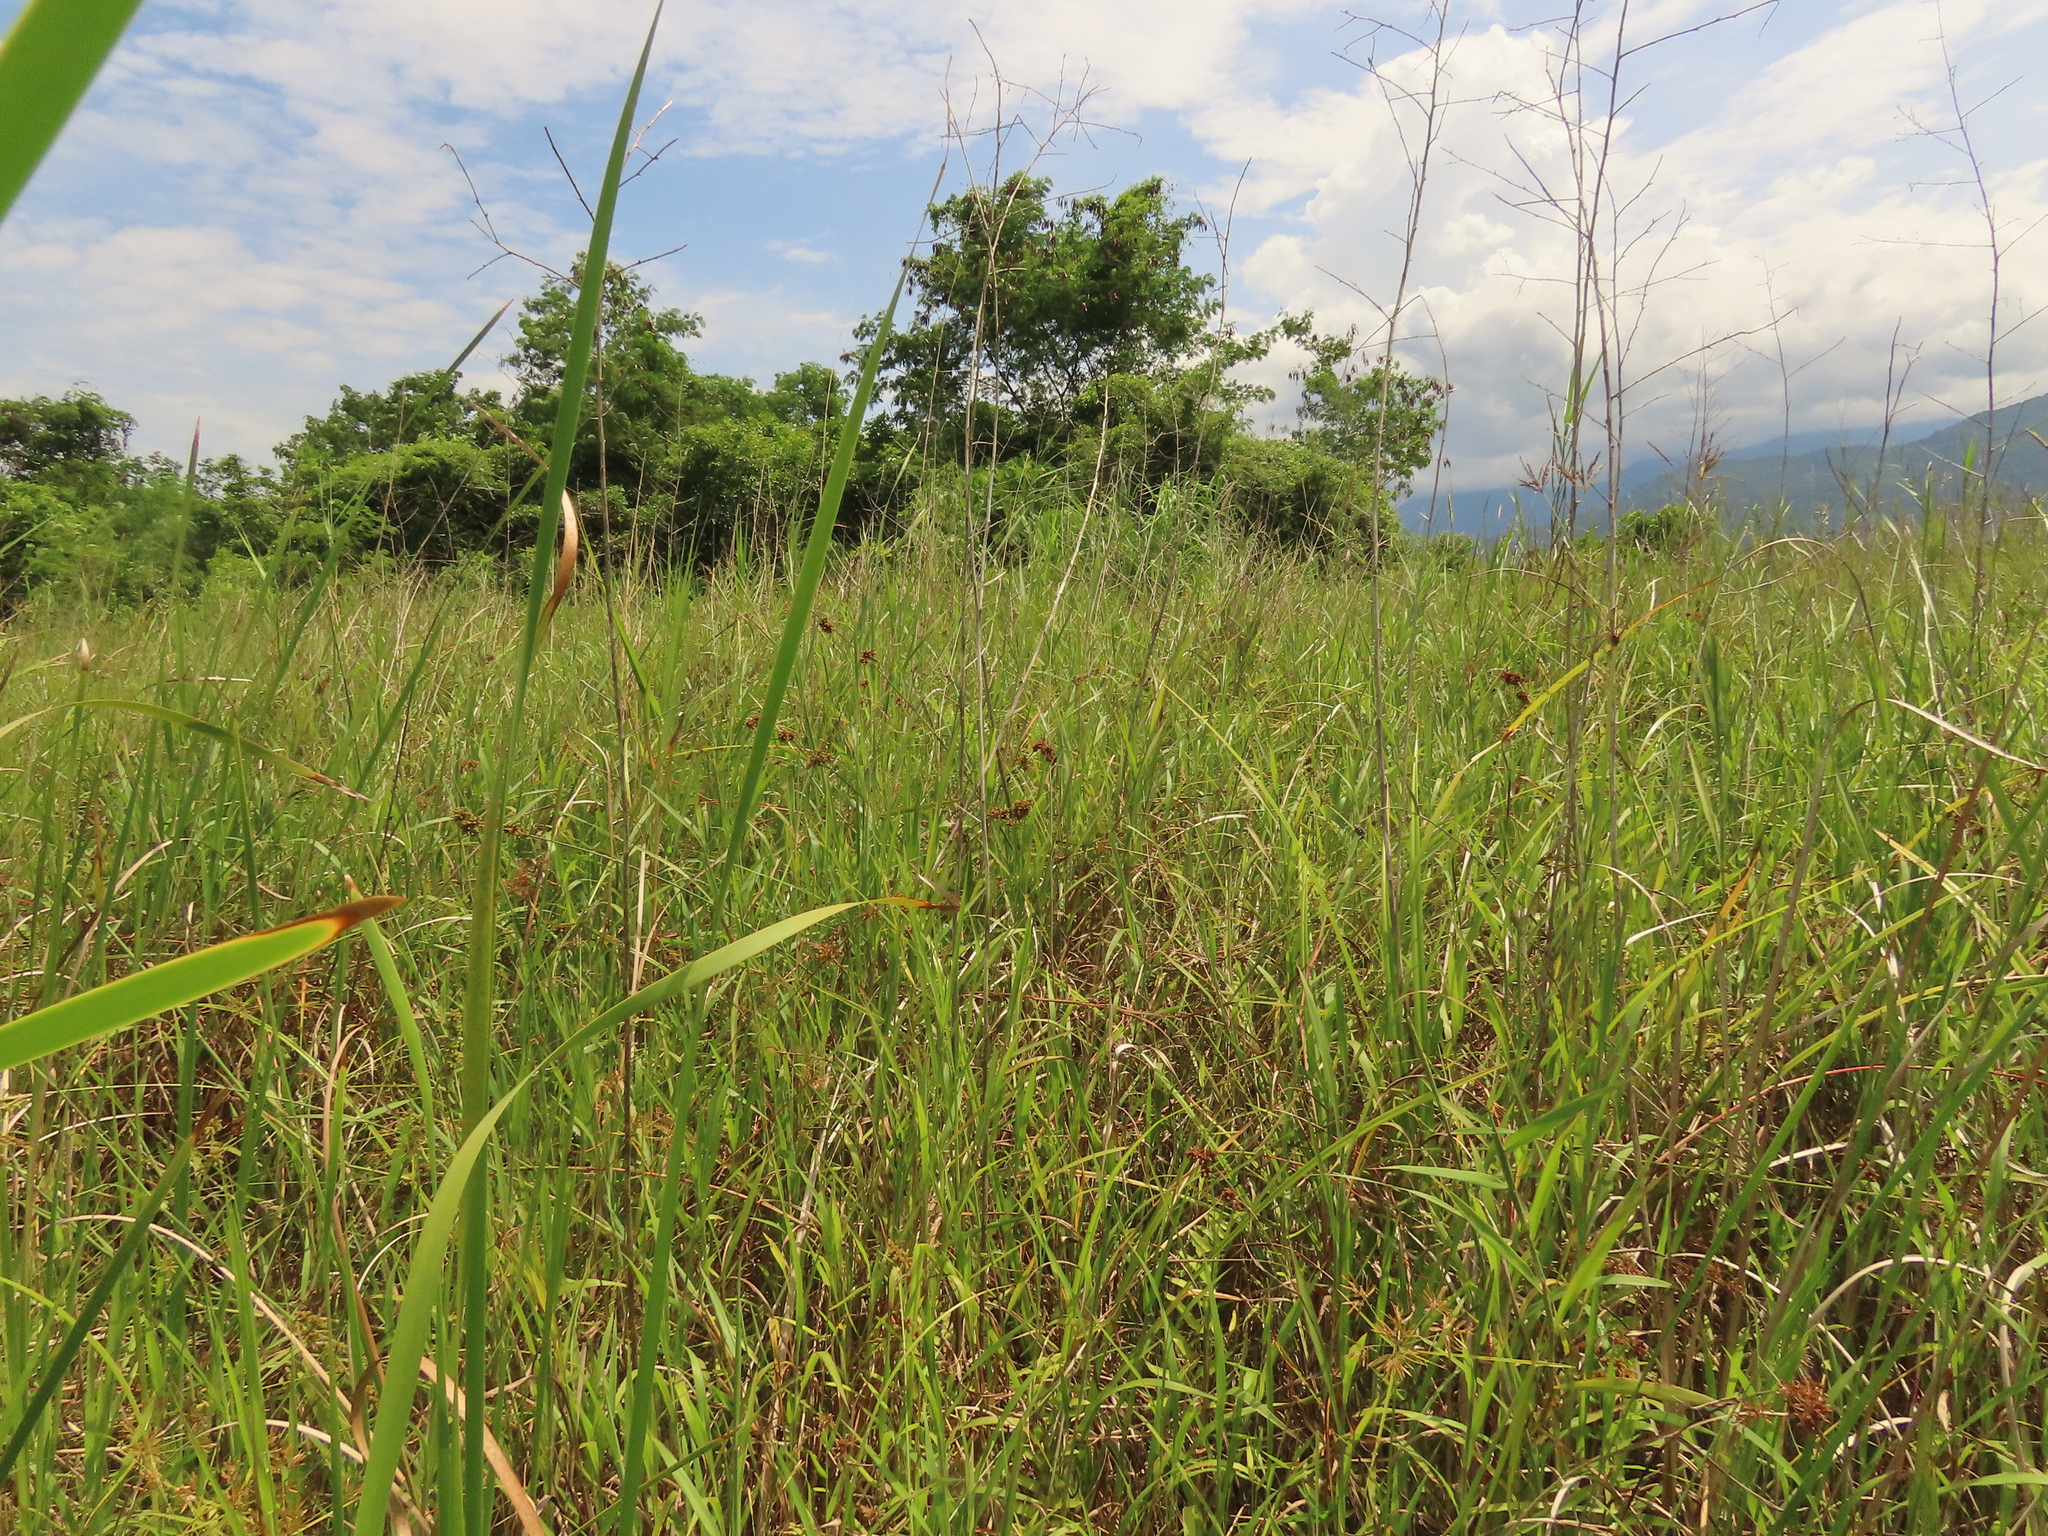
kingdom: Plantae
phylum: Tracheophyta
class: Liliopsida
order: Poales
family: Cyperaceae
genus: Fuirena
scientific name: Fuirena umbellata
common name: Yefen
